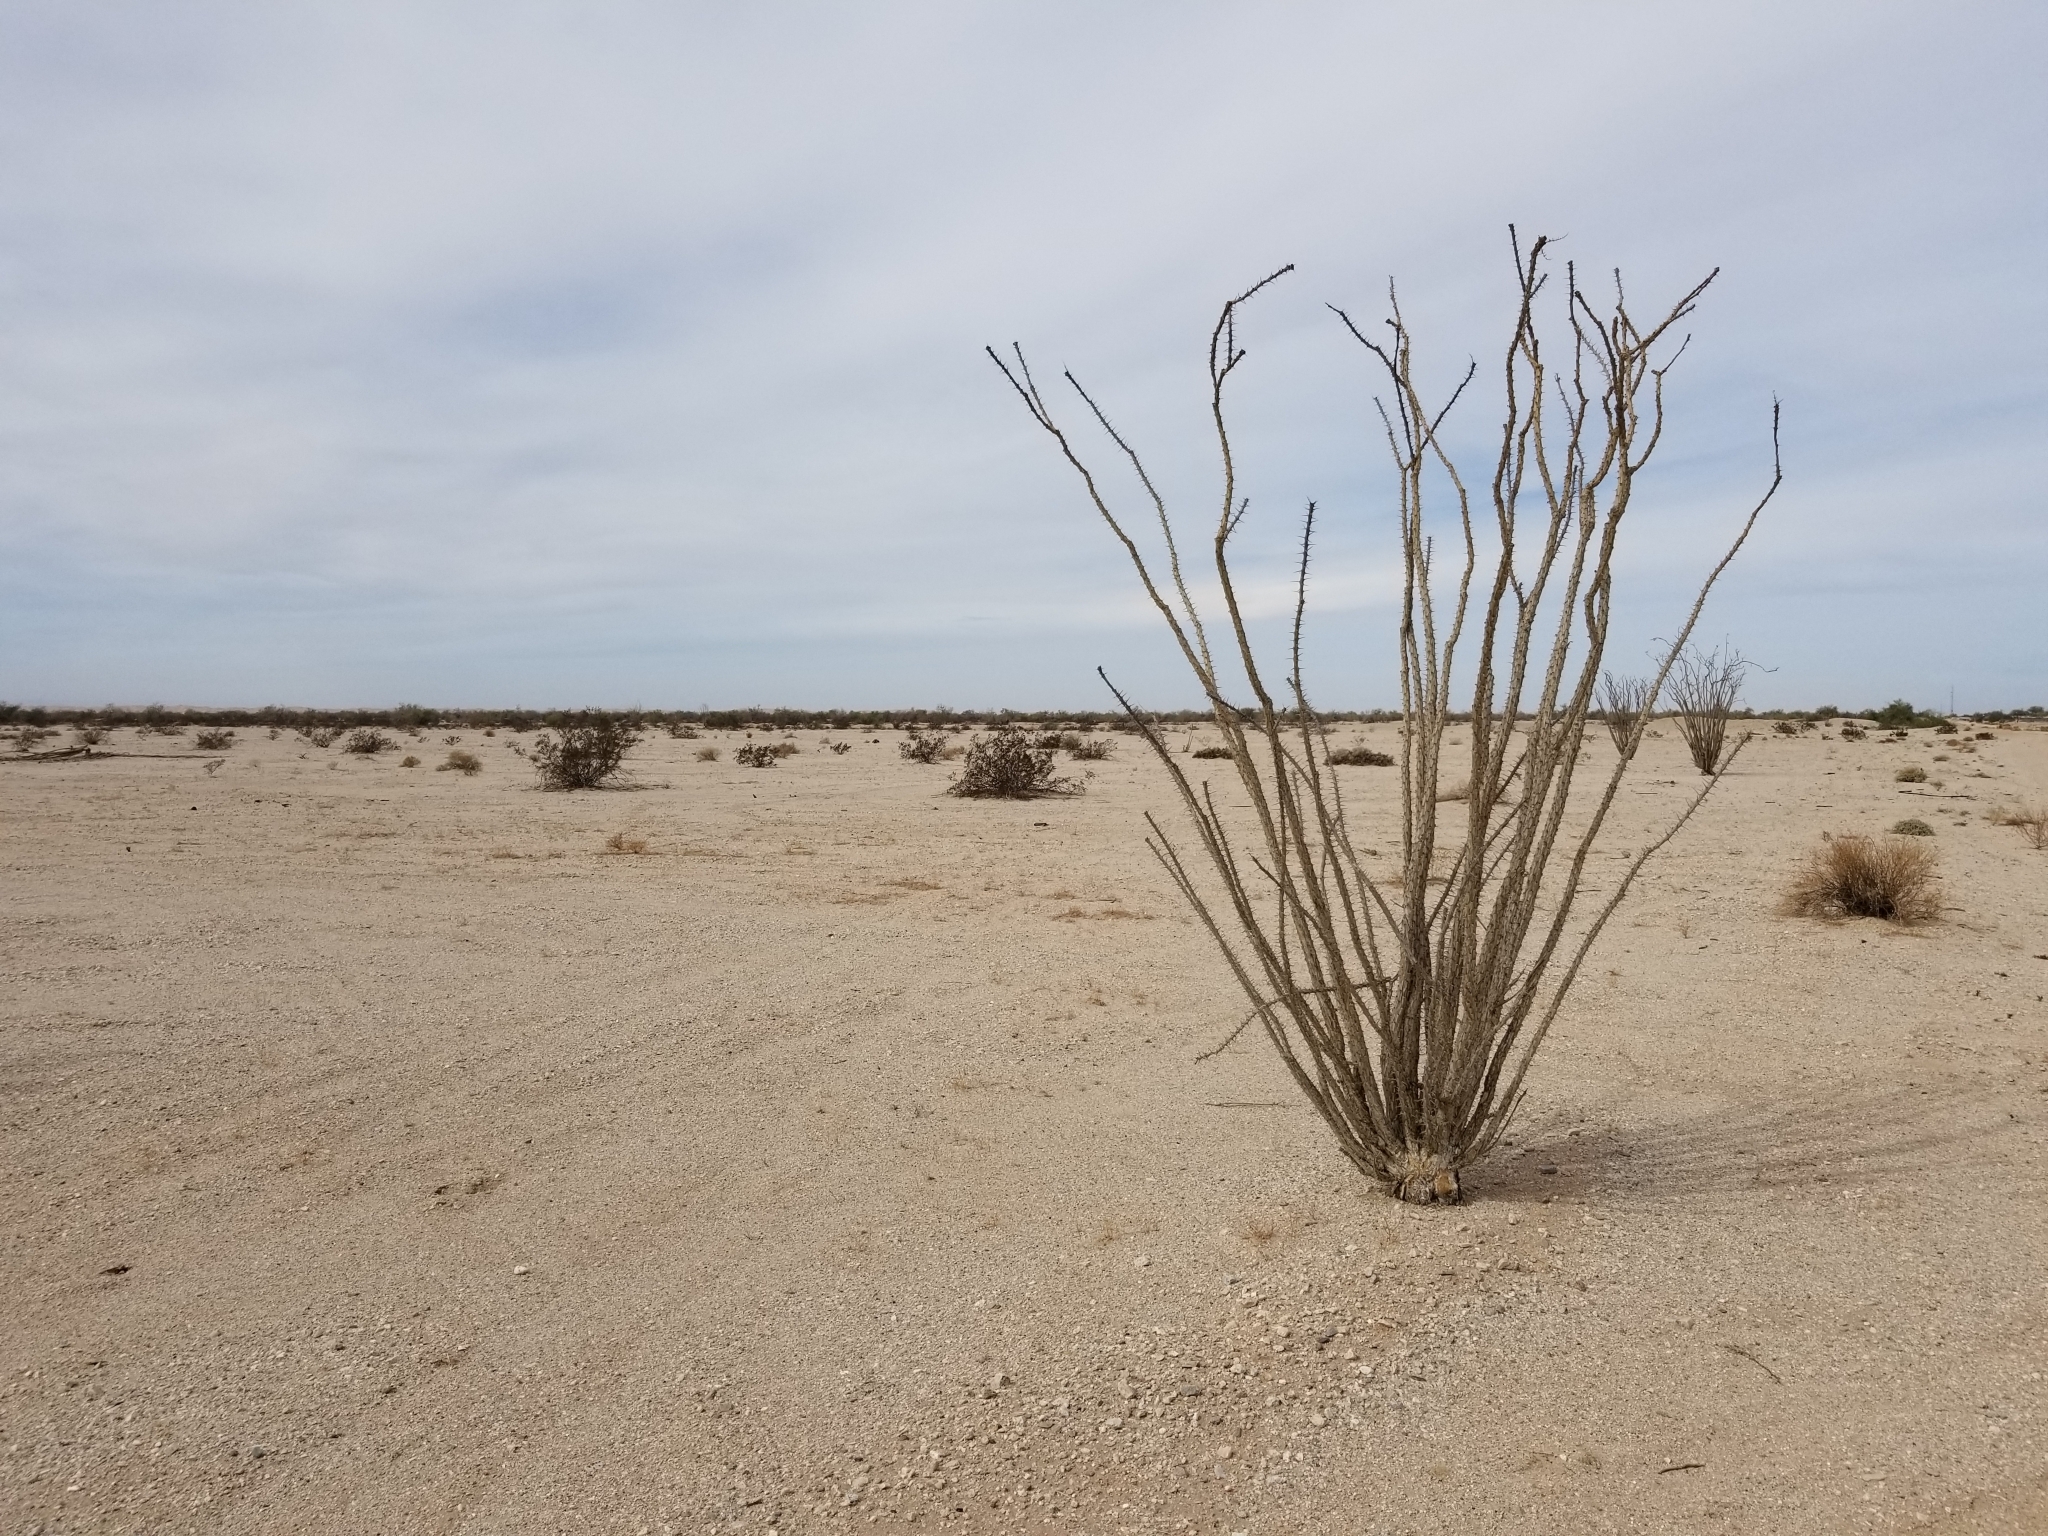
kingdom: Plantae
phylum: Tracheophyta
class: Magnoliopsida
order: Ericales
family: Fouquieriaceae
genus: Fouquieria
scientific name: Fouquieria splendens
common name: Vine-cactus
